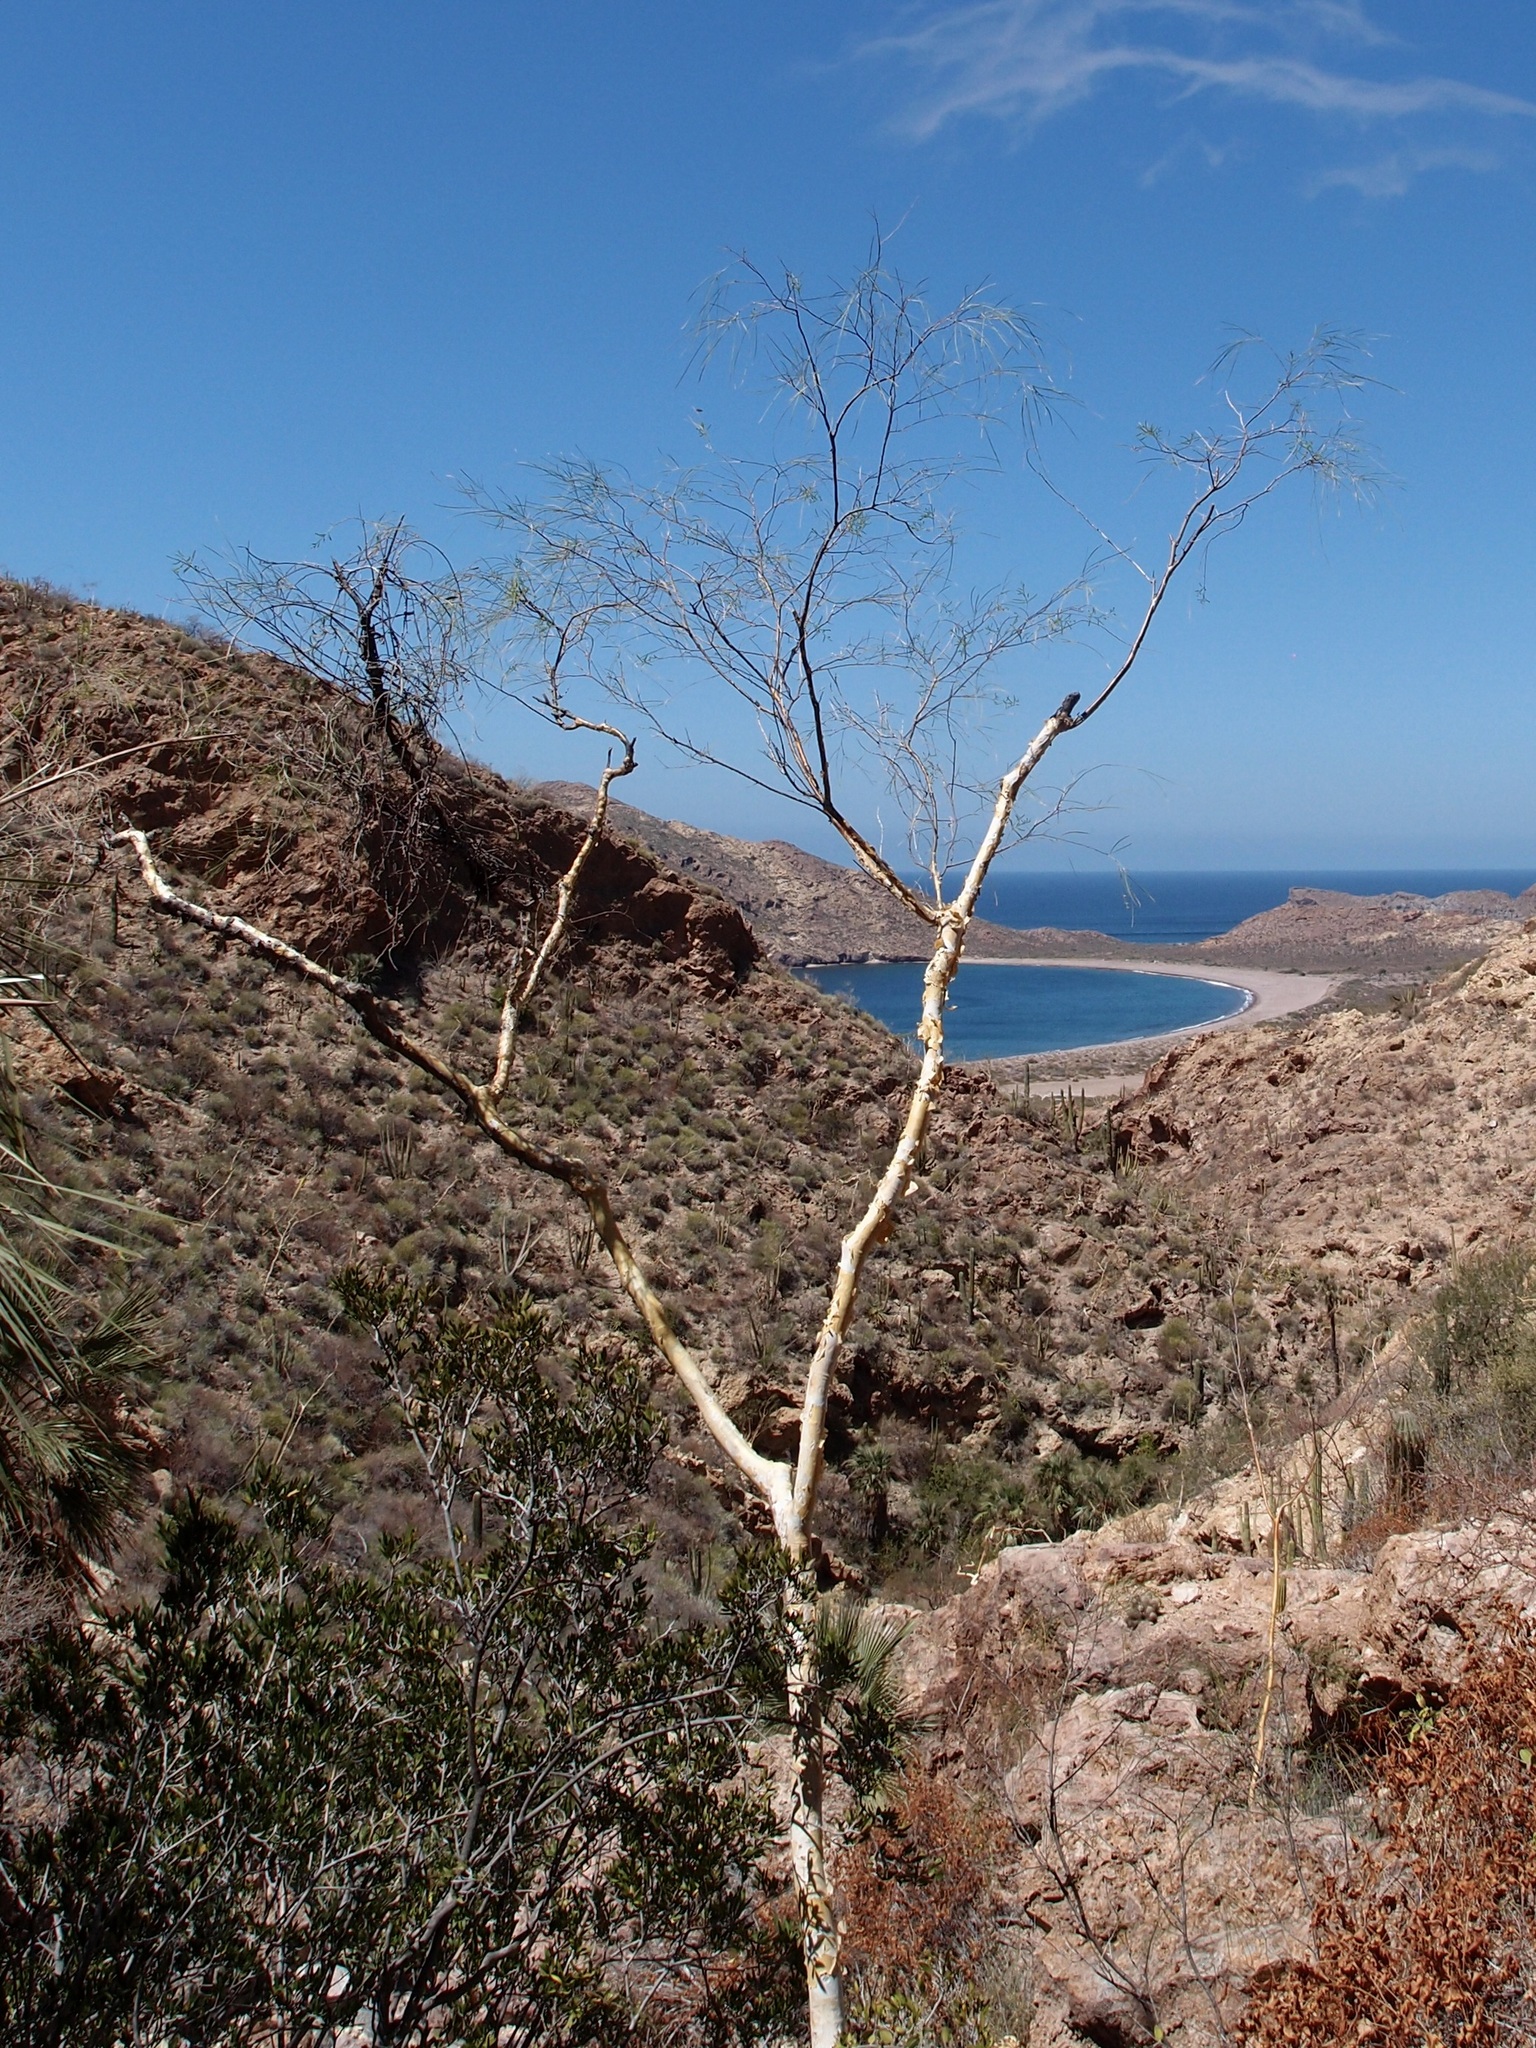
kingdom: Plantae
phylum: Tracheophyta
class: Magnoliopsida
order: Fabales
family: Fabaceae
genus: Mariosousa
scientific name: Mariosousa heterophylla
